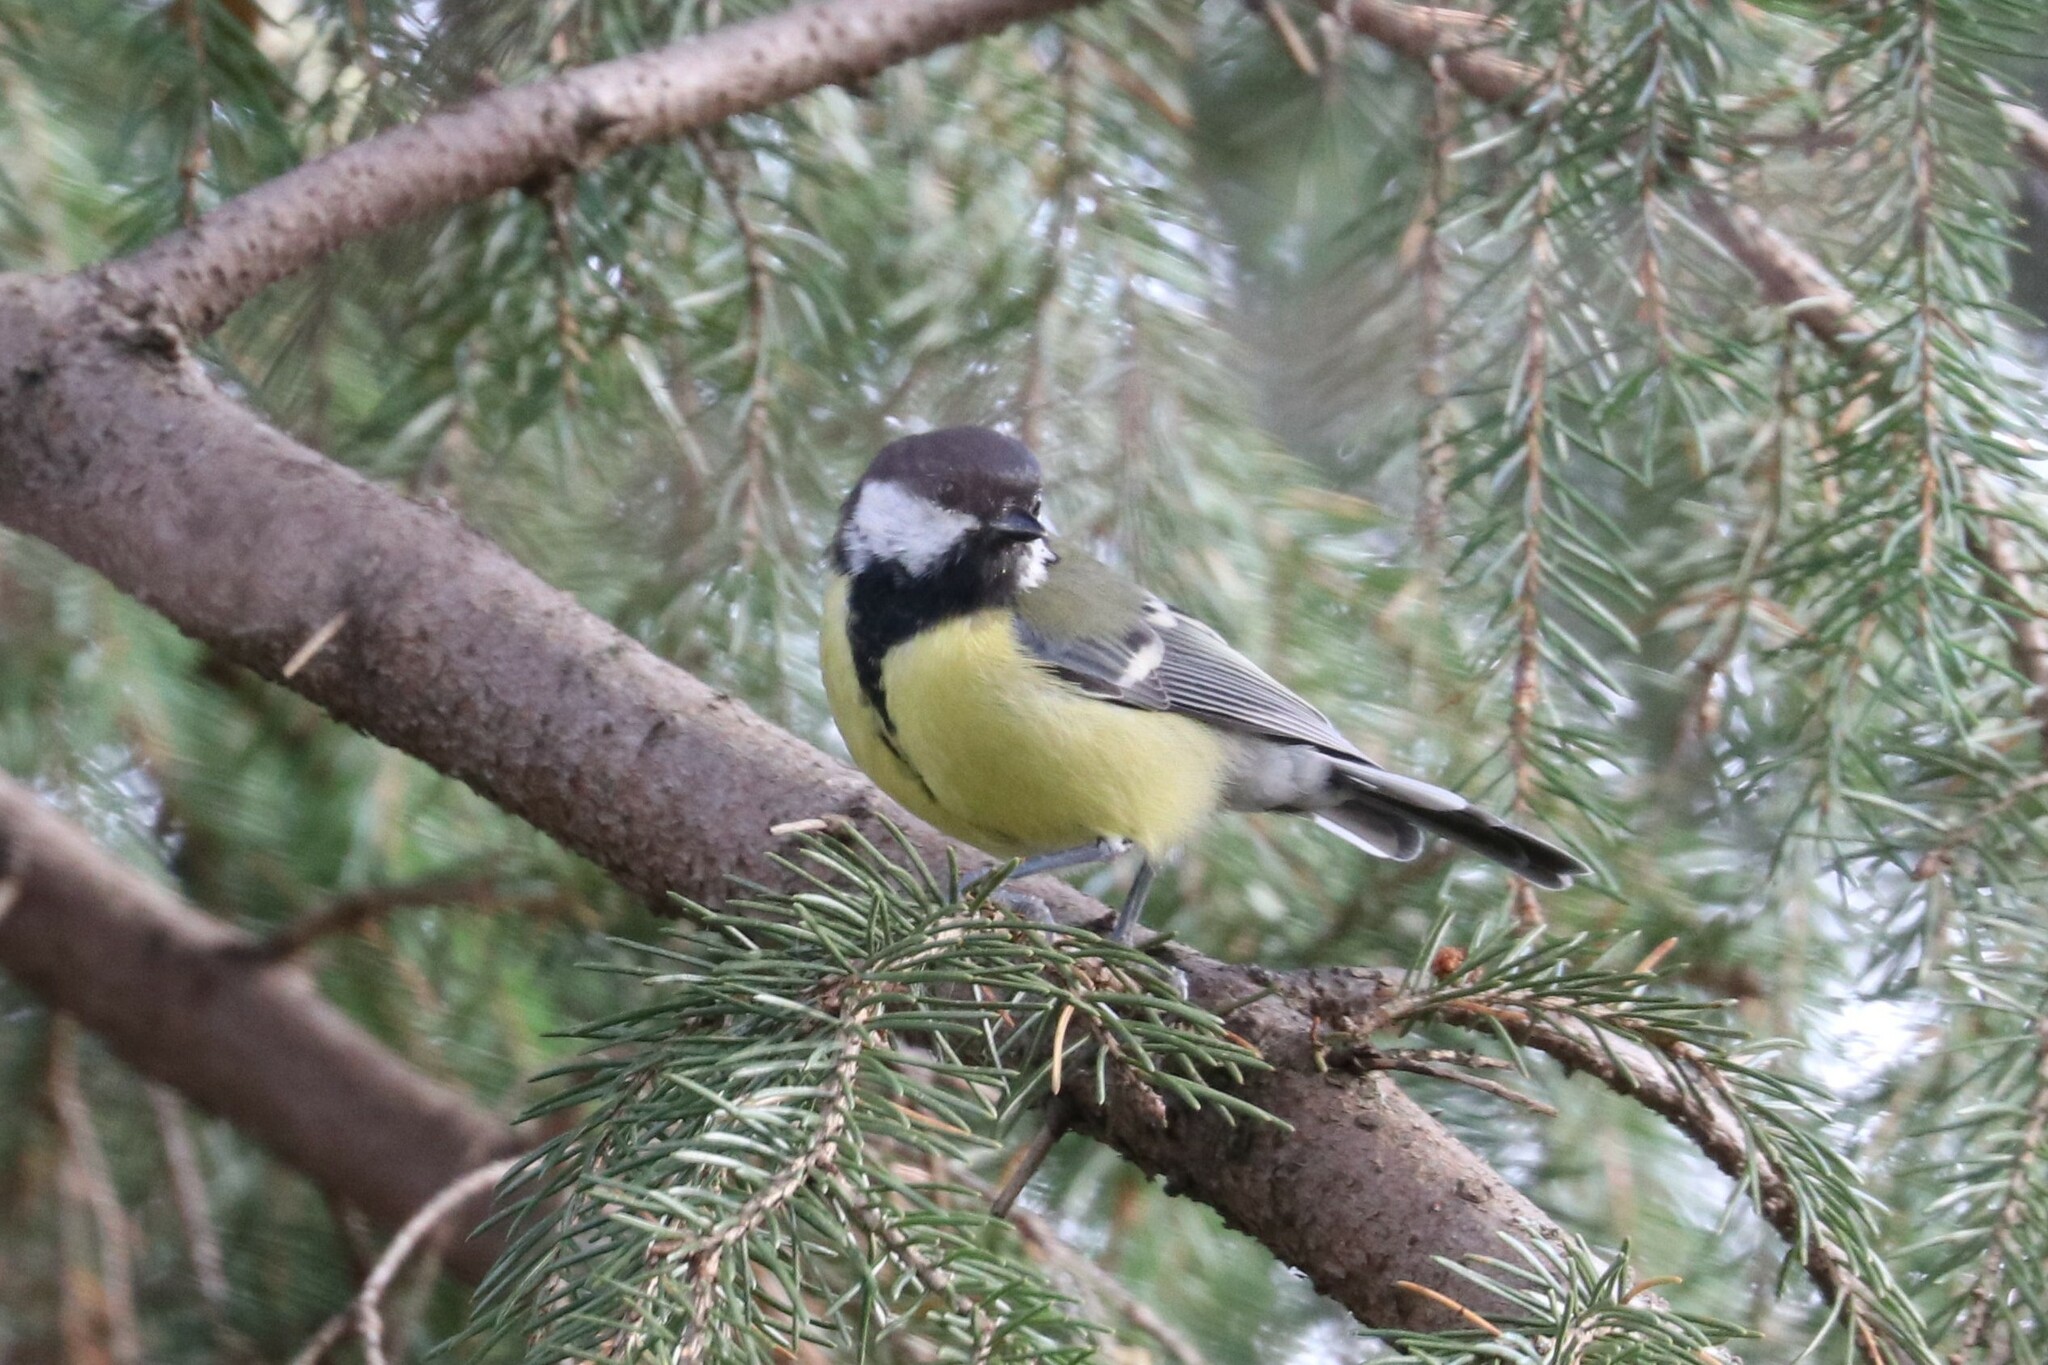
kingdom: Animalia
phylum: Chordata
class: Aves
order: Passeriformes
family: Paridae
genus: Parus
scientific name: Parus major
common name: Great tit
